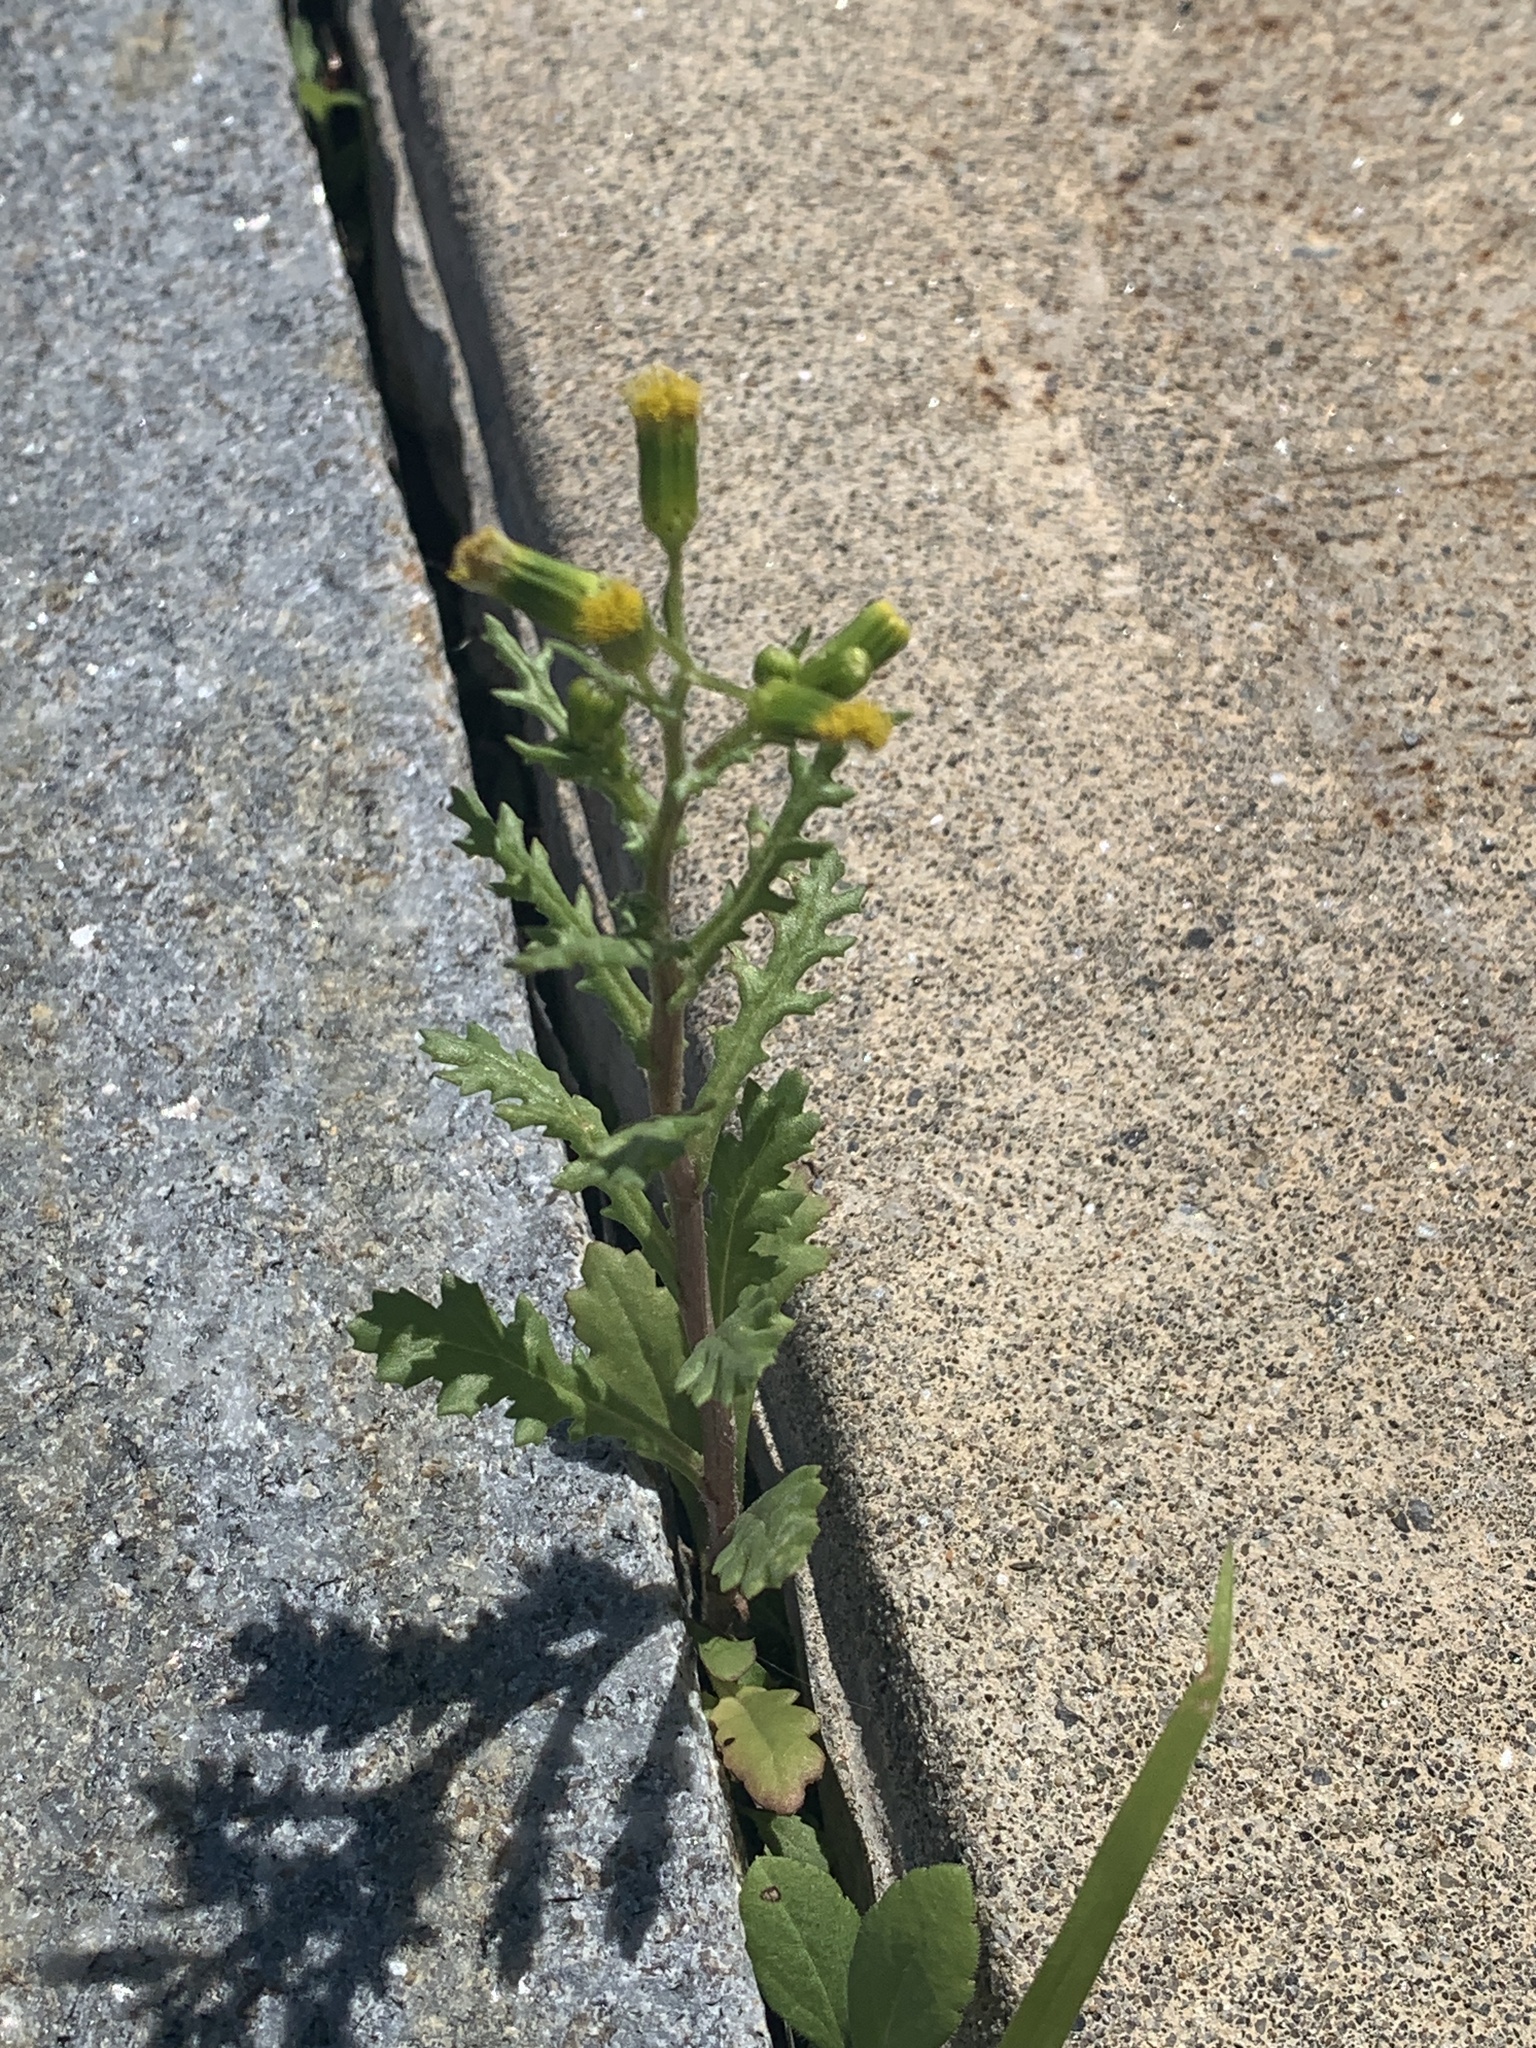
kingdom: Plantae
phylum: Tracheophyta
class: Magnoliopsida
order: Asterales
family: Asteraceae
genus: Senecio
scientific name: Senecio vulgaris
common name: Old-man-in-the-spring
